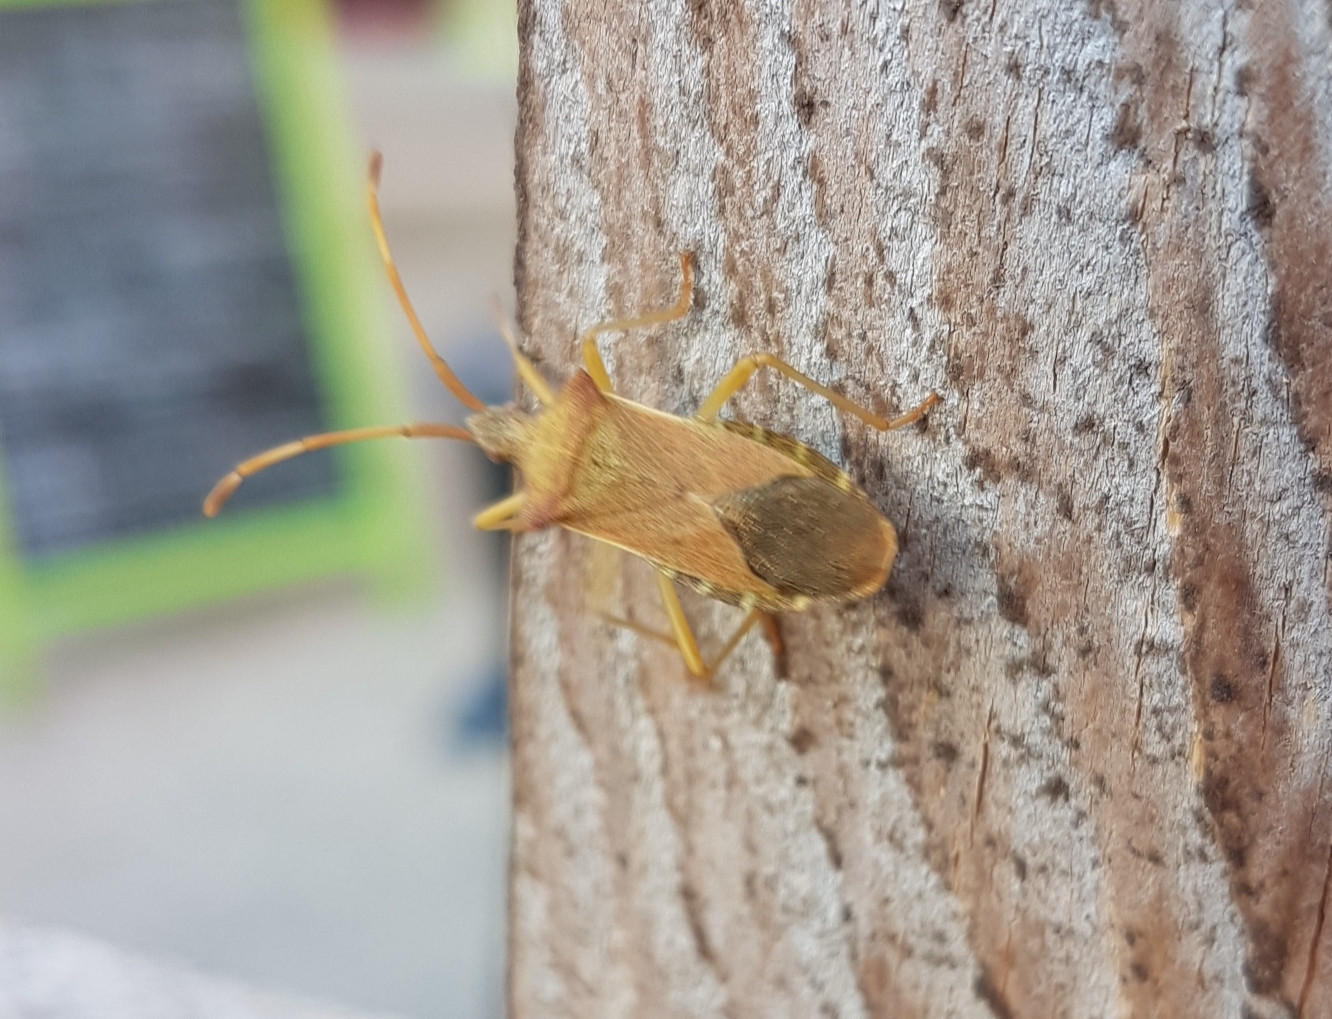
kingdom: Animalia
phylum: Arthropoda
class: Insecta
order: Hemiptera
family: Coreidae
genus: Gonocerus
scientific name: Gonocerus acuteangulatus
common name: Box bug
